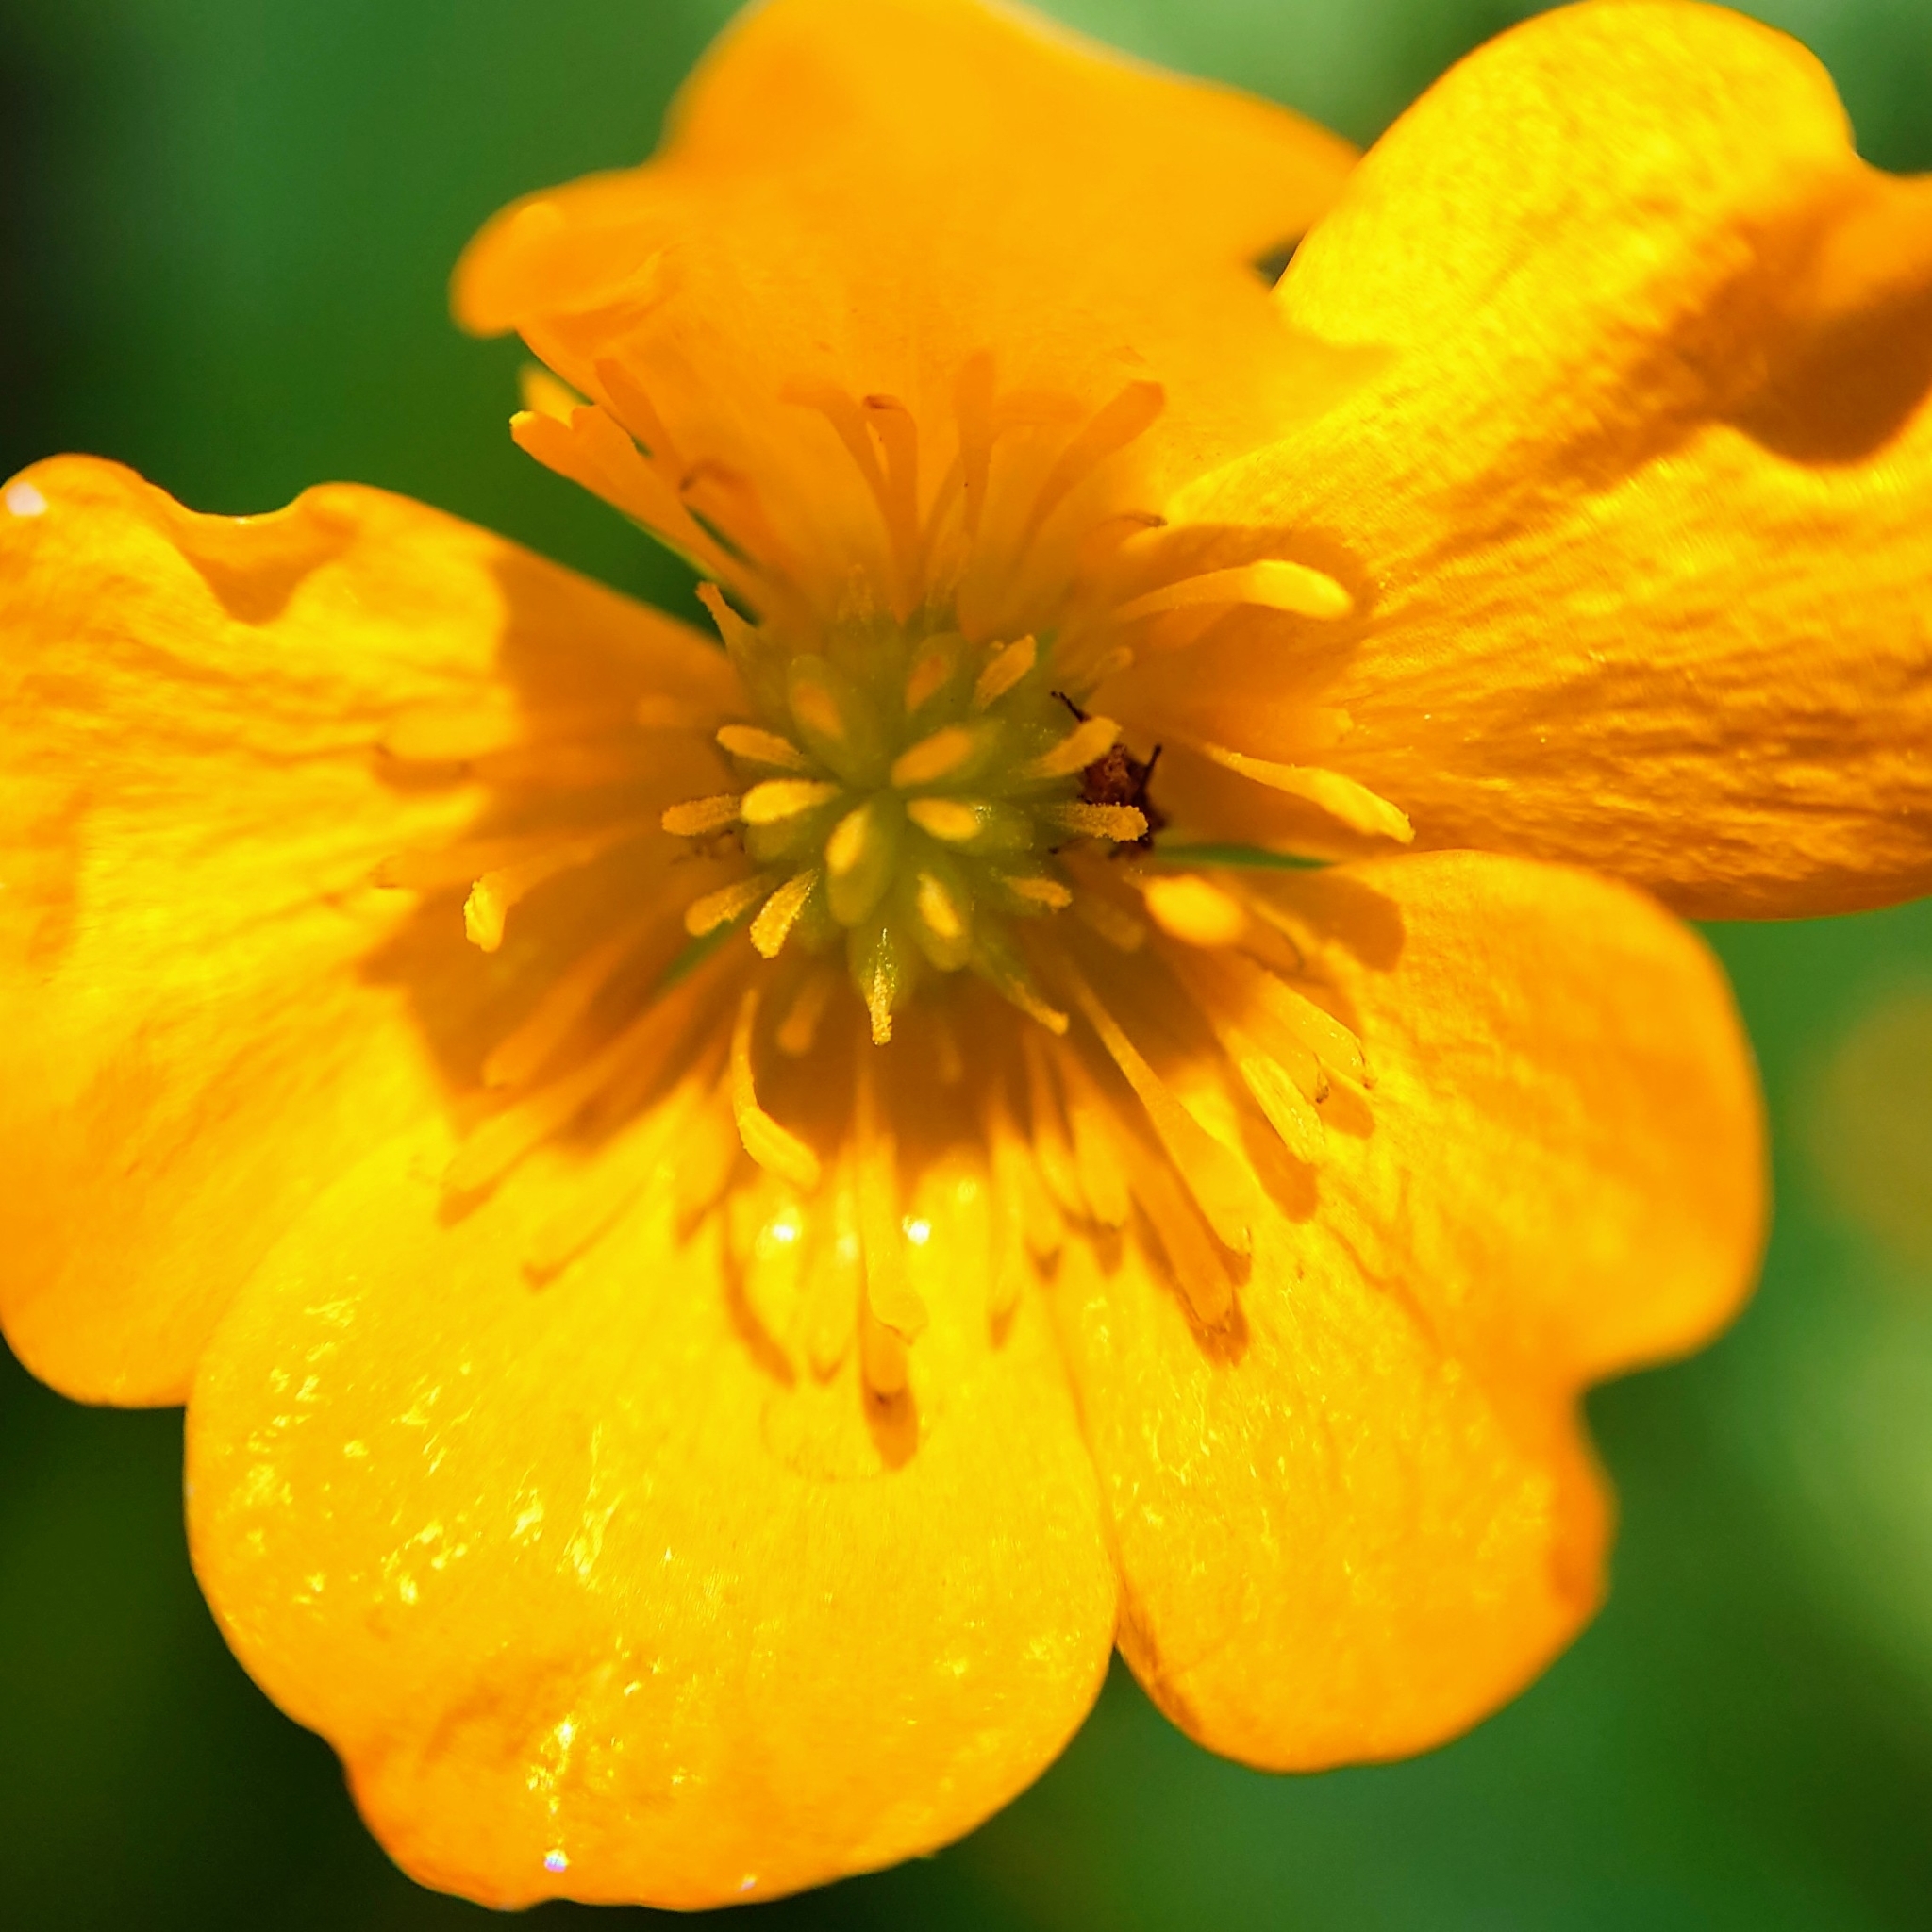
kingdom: Plantae
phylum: Tracheophyta
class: Magnoliopsida
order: Ranunculales
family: Ranunculaceae
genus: Ranunculus
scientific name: Ranunculus repens
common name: Creeping buttercup
